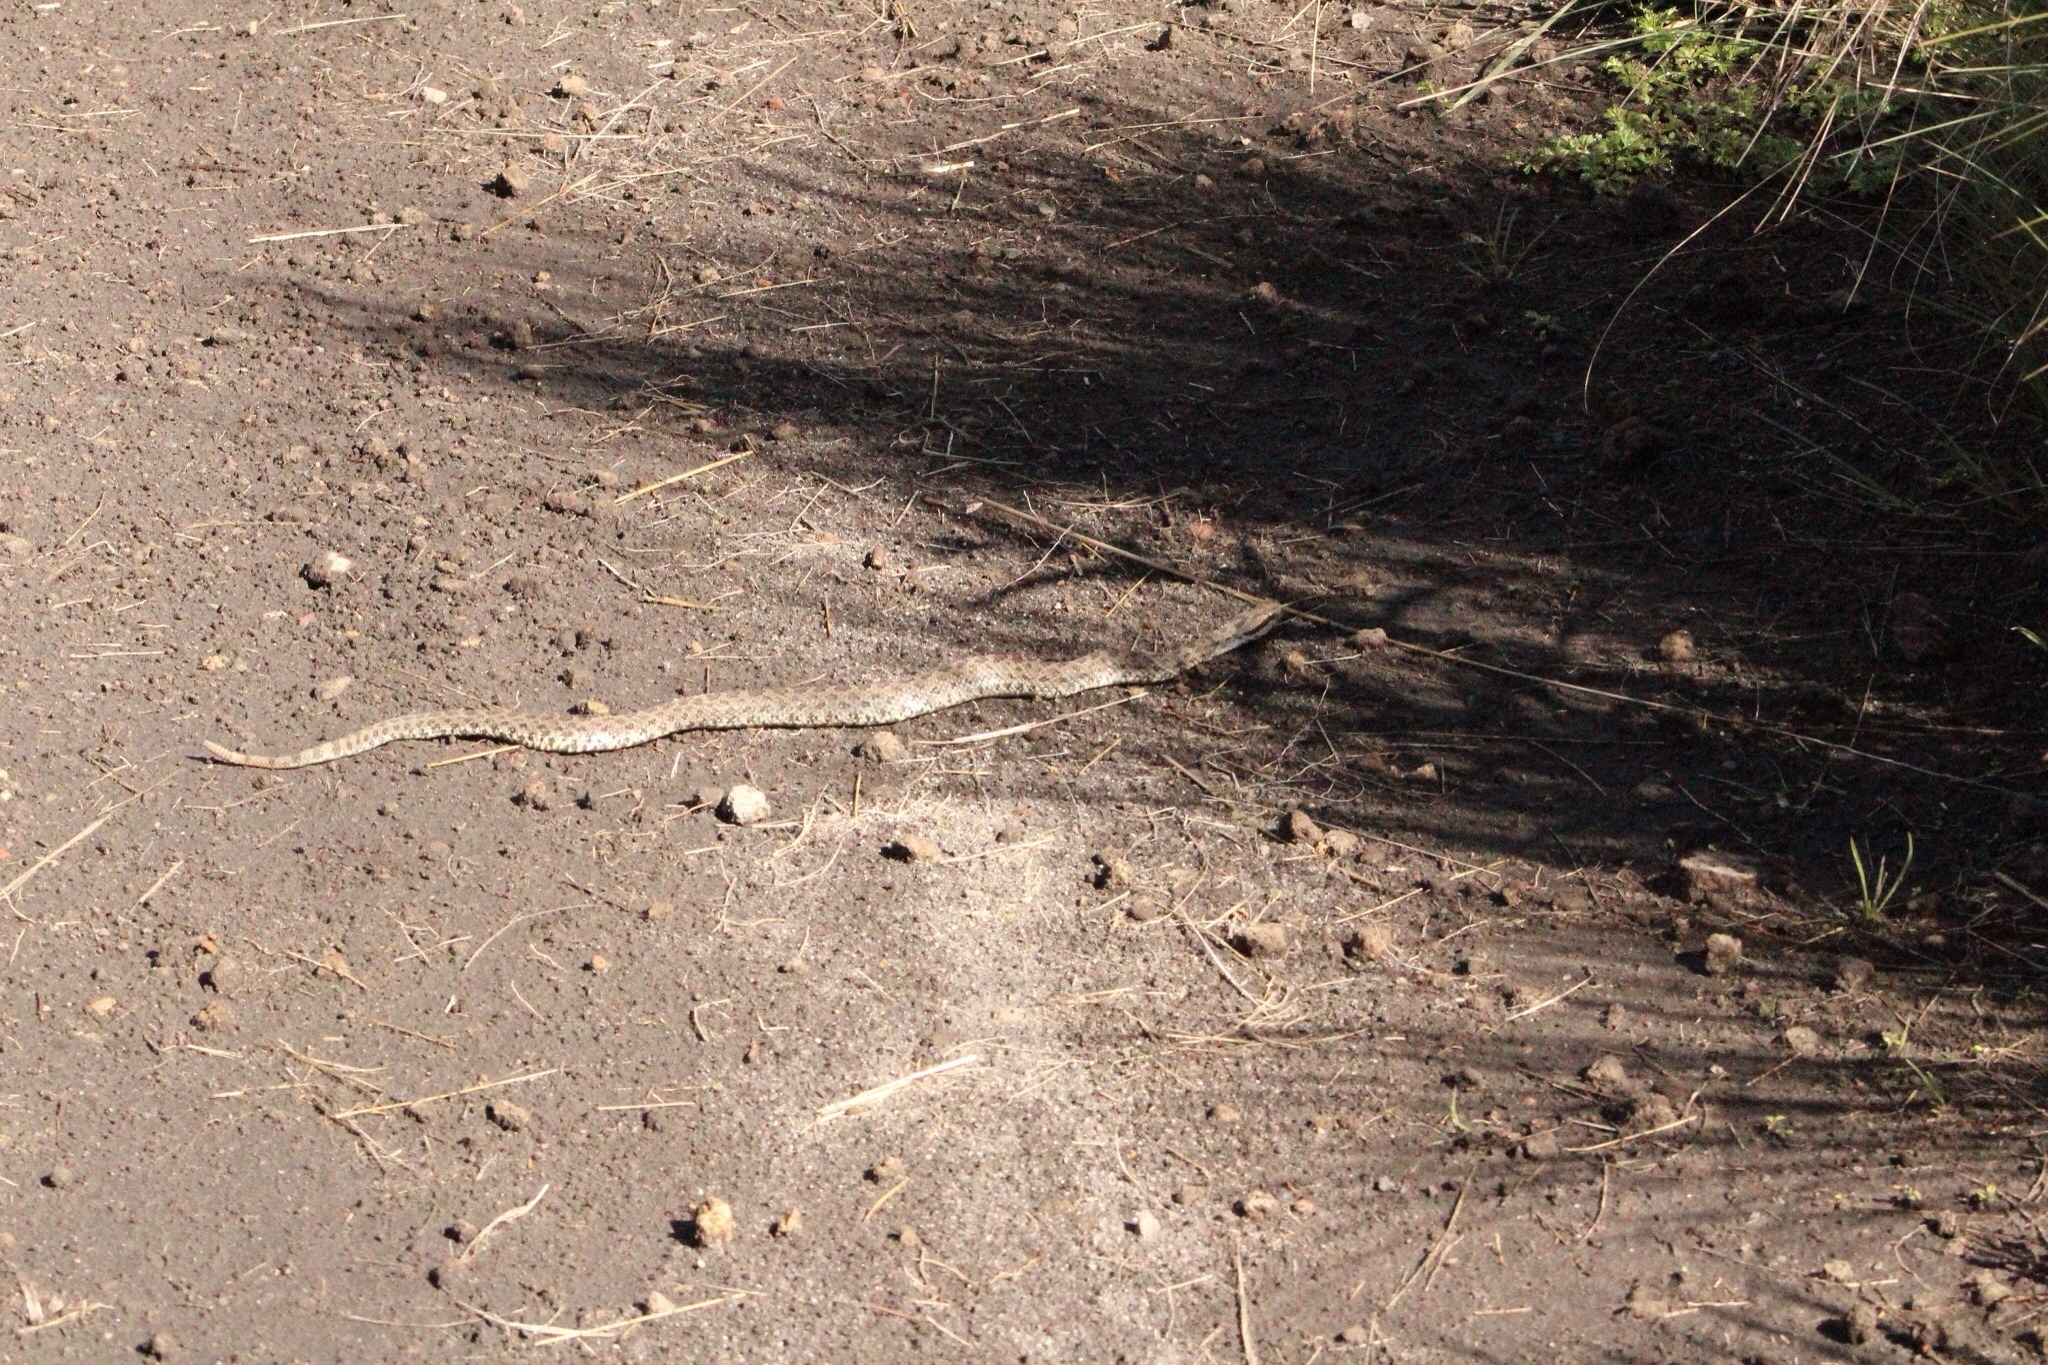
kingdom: Animalia
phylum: Chordata
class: Squamata
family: Viperidae
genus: Crotalus
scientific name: Crotalus triseriatus
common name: Central plateau dusky rattlesnake
